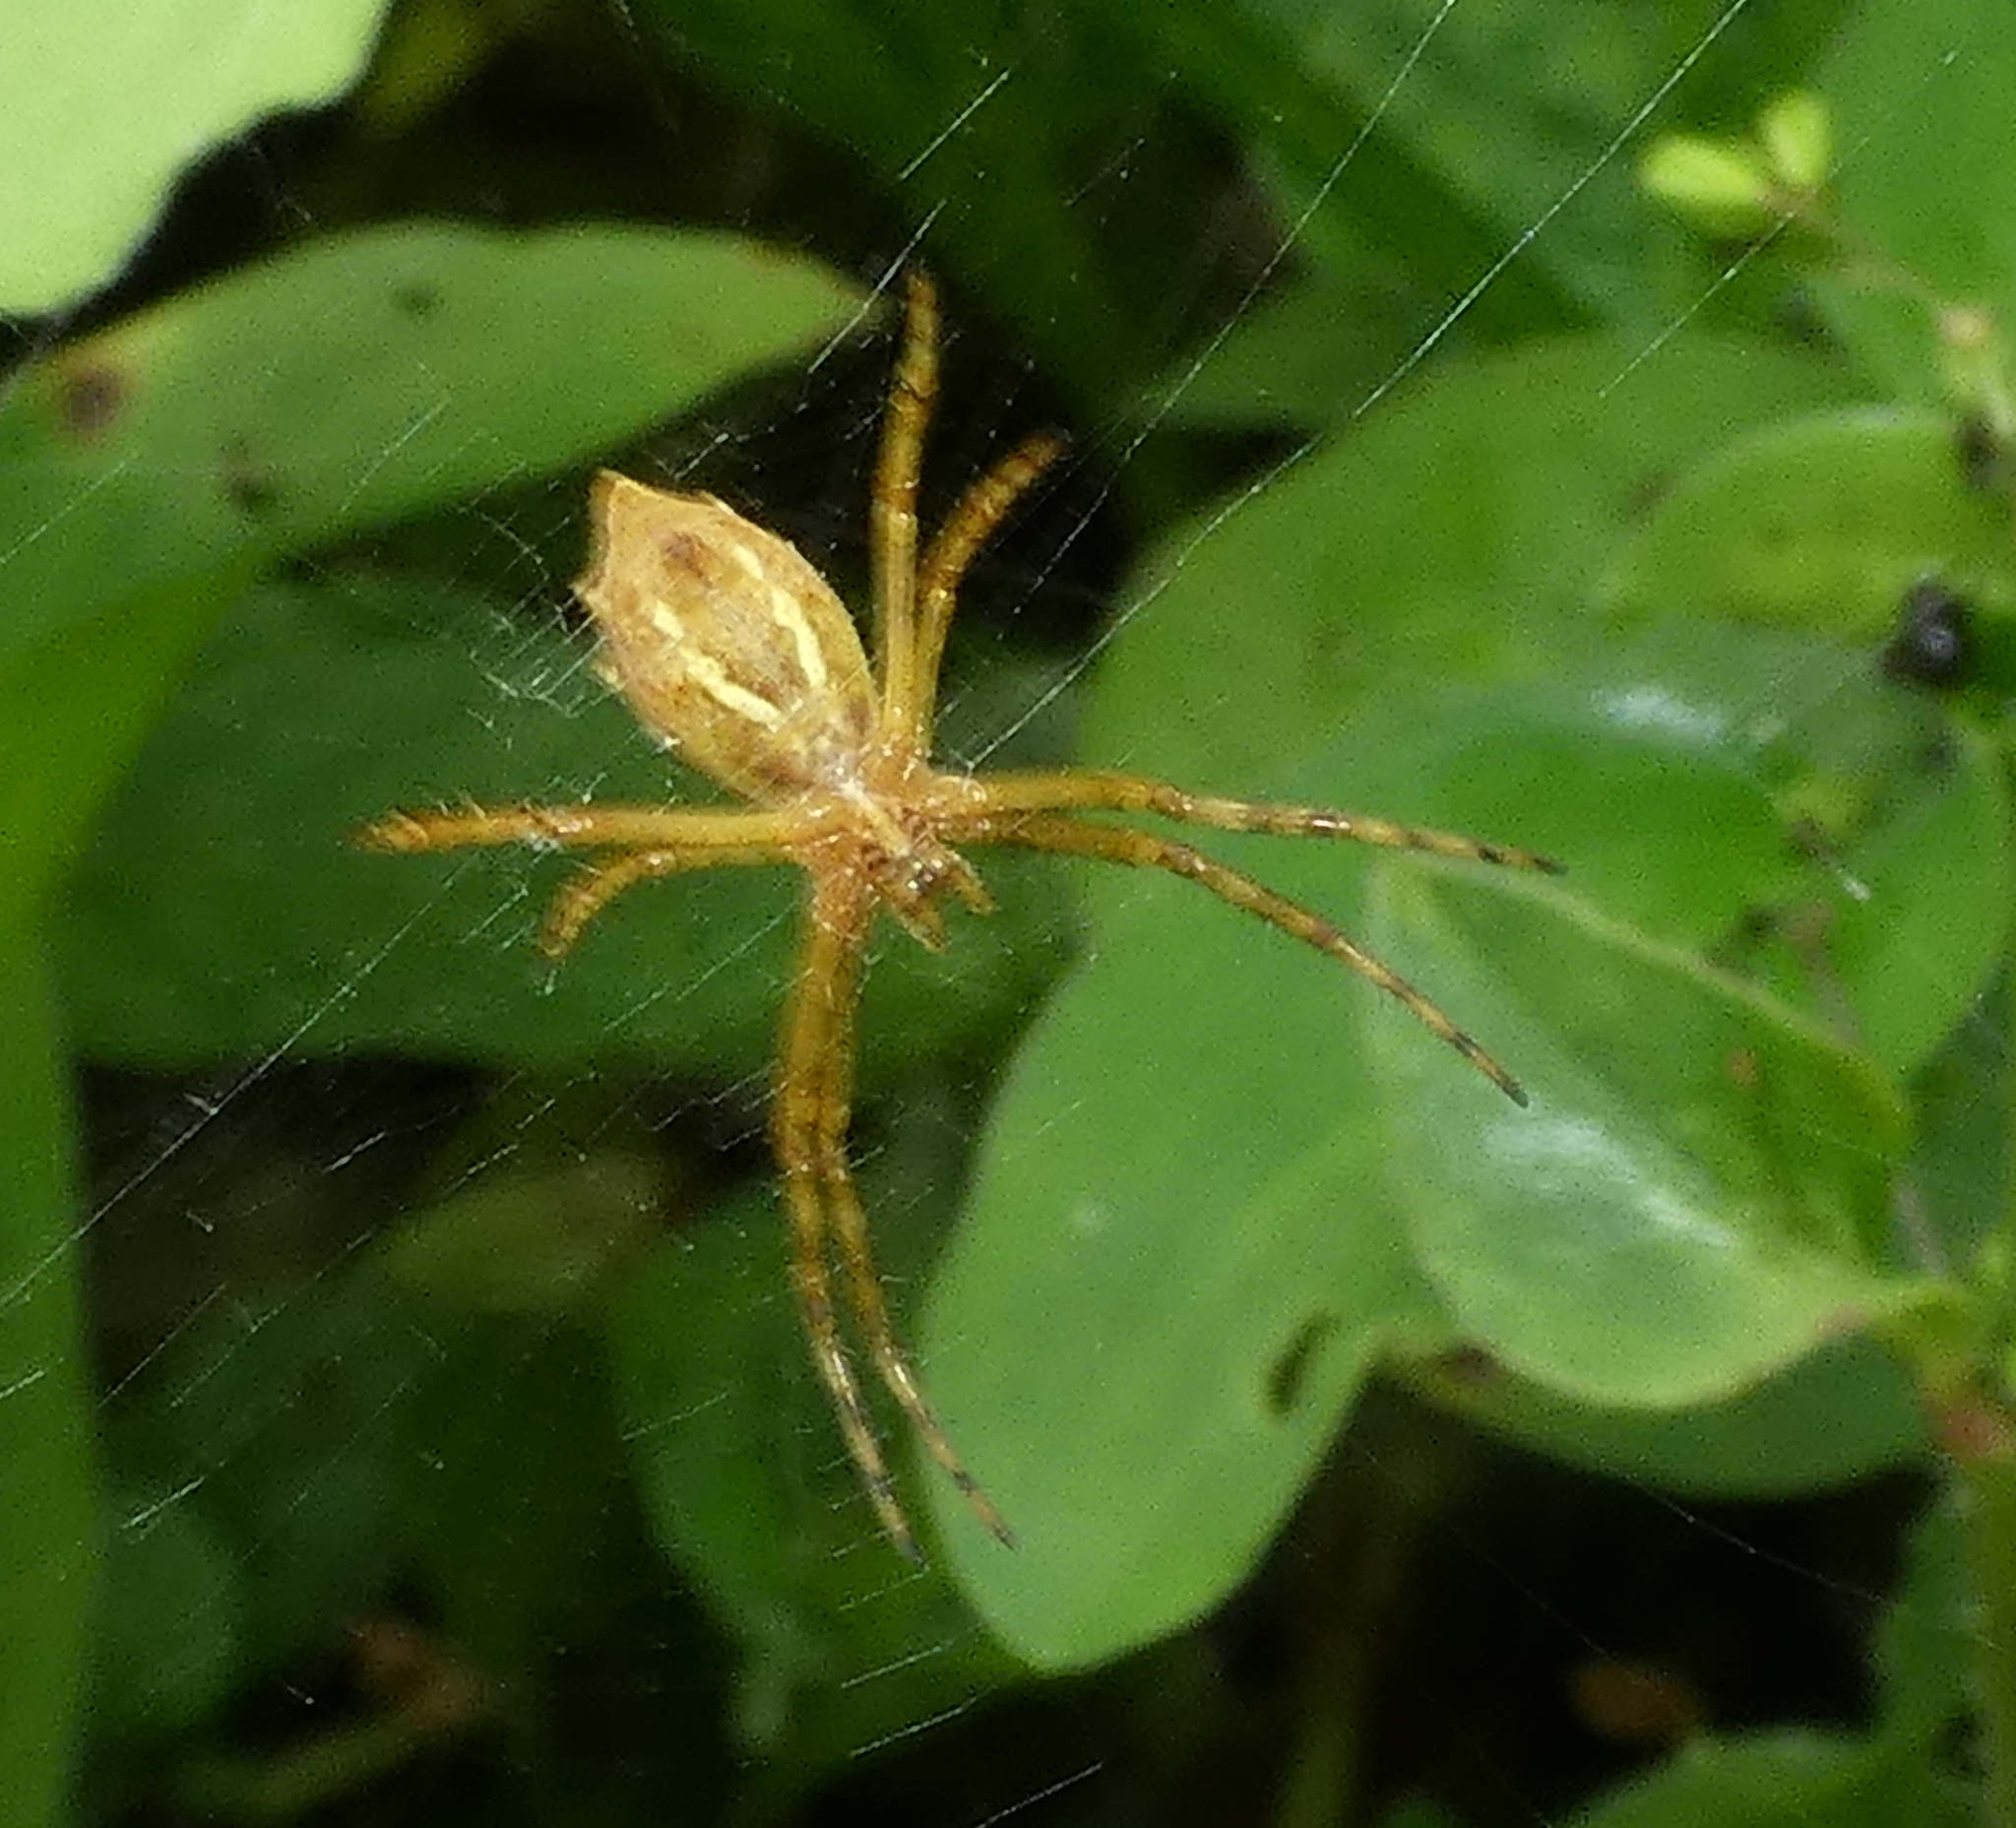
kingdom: Animalia
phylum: Arthropoda
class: Arachnida
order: Araneae
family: Araneidae
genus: Argiope
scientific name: Argiope argentata
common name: Orb weavers
